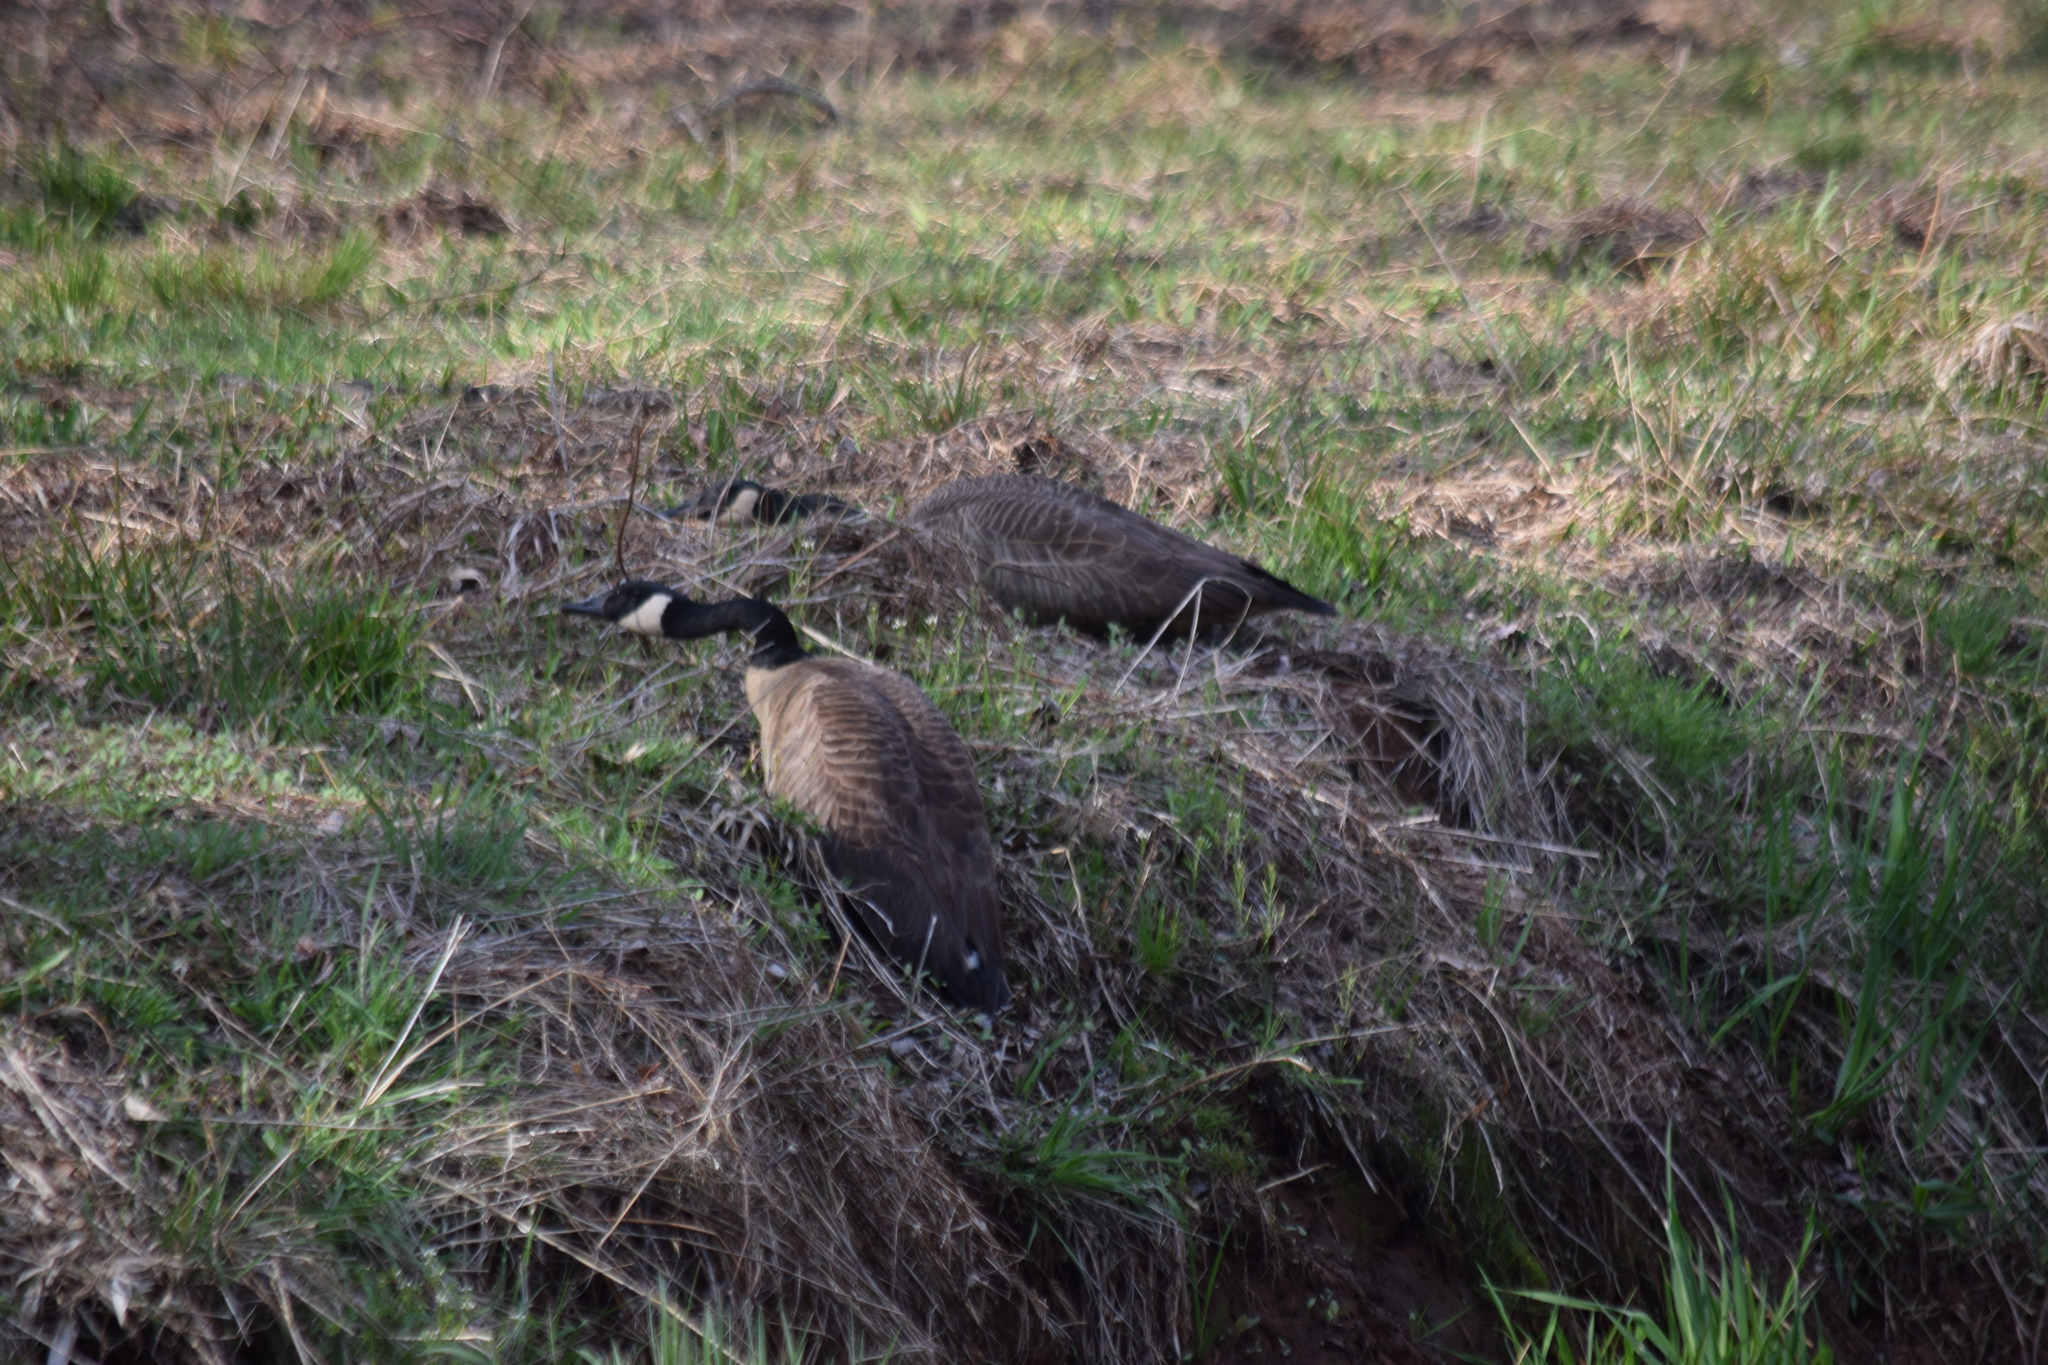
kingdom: Animalia
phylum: Chordata
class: Aves
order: Anseriformes
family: Anatidae
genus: Branta
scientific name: Branta canadensis
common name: Canada goose
